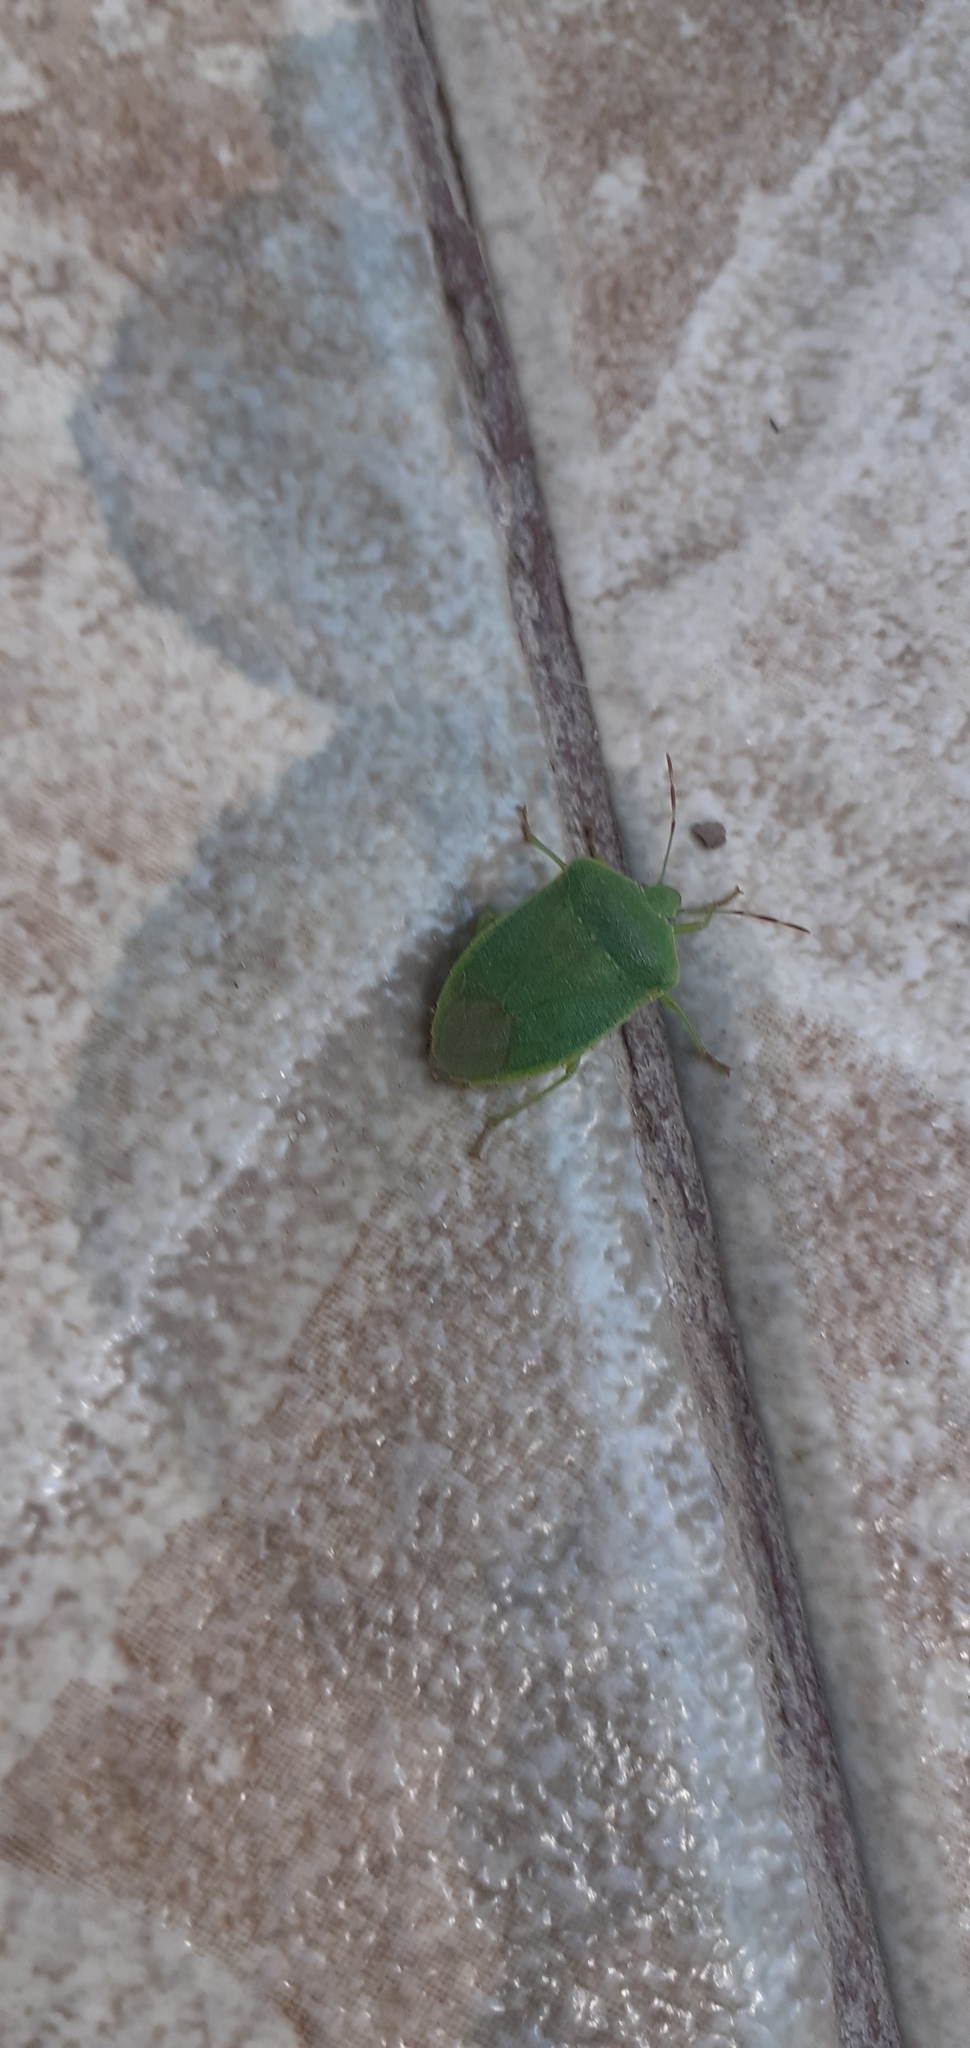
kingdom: Animalia
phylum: Arthropoda
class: Insecta
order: Hemiptera
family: Pentatomidae
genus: Nezara
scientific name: Nezara viridula
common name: Southern green stink bug
